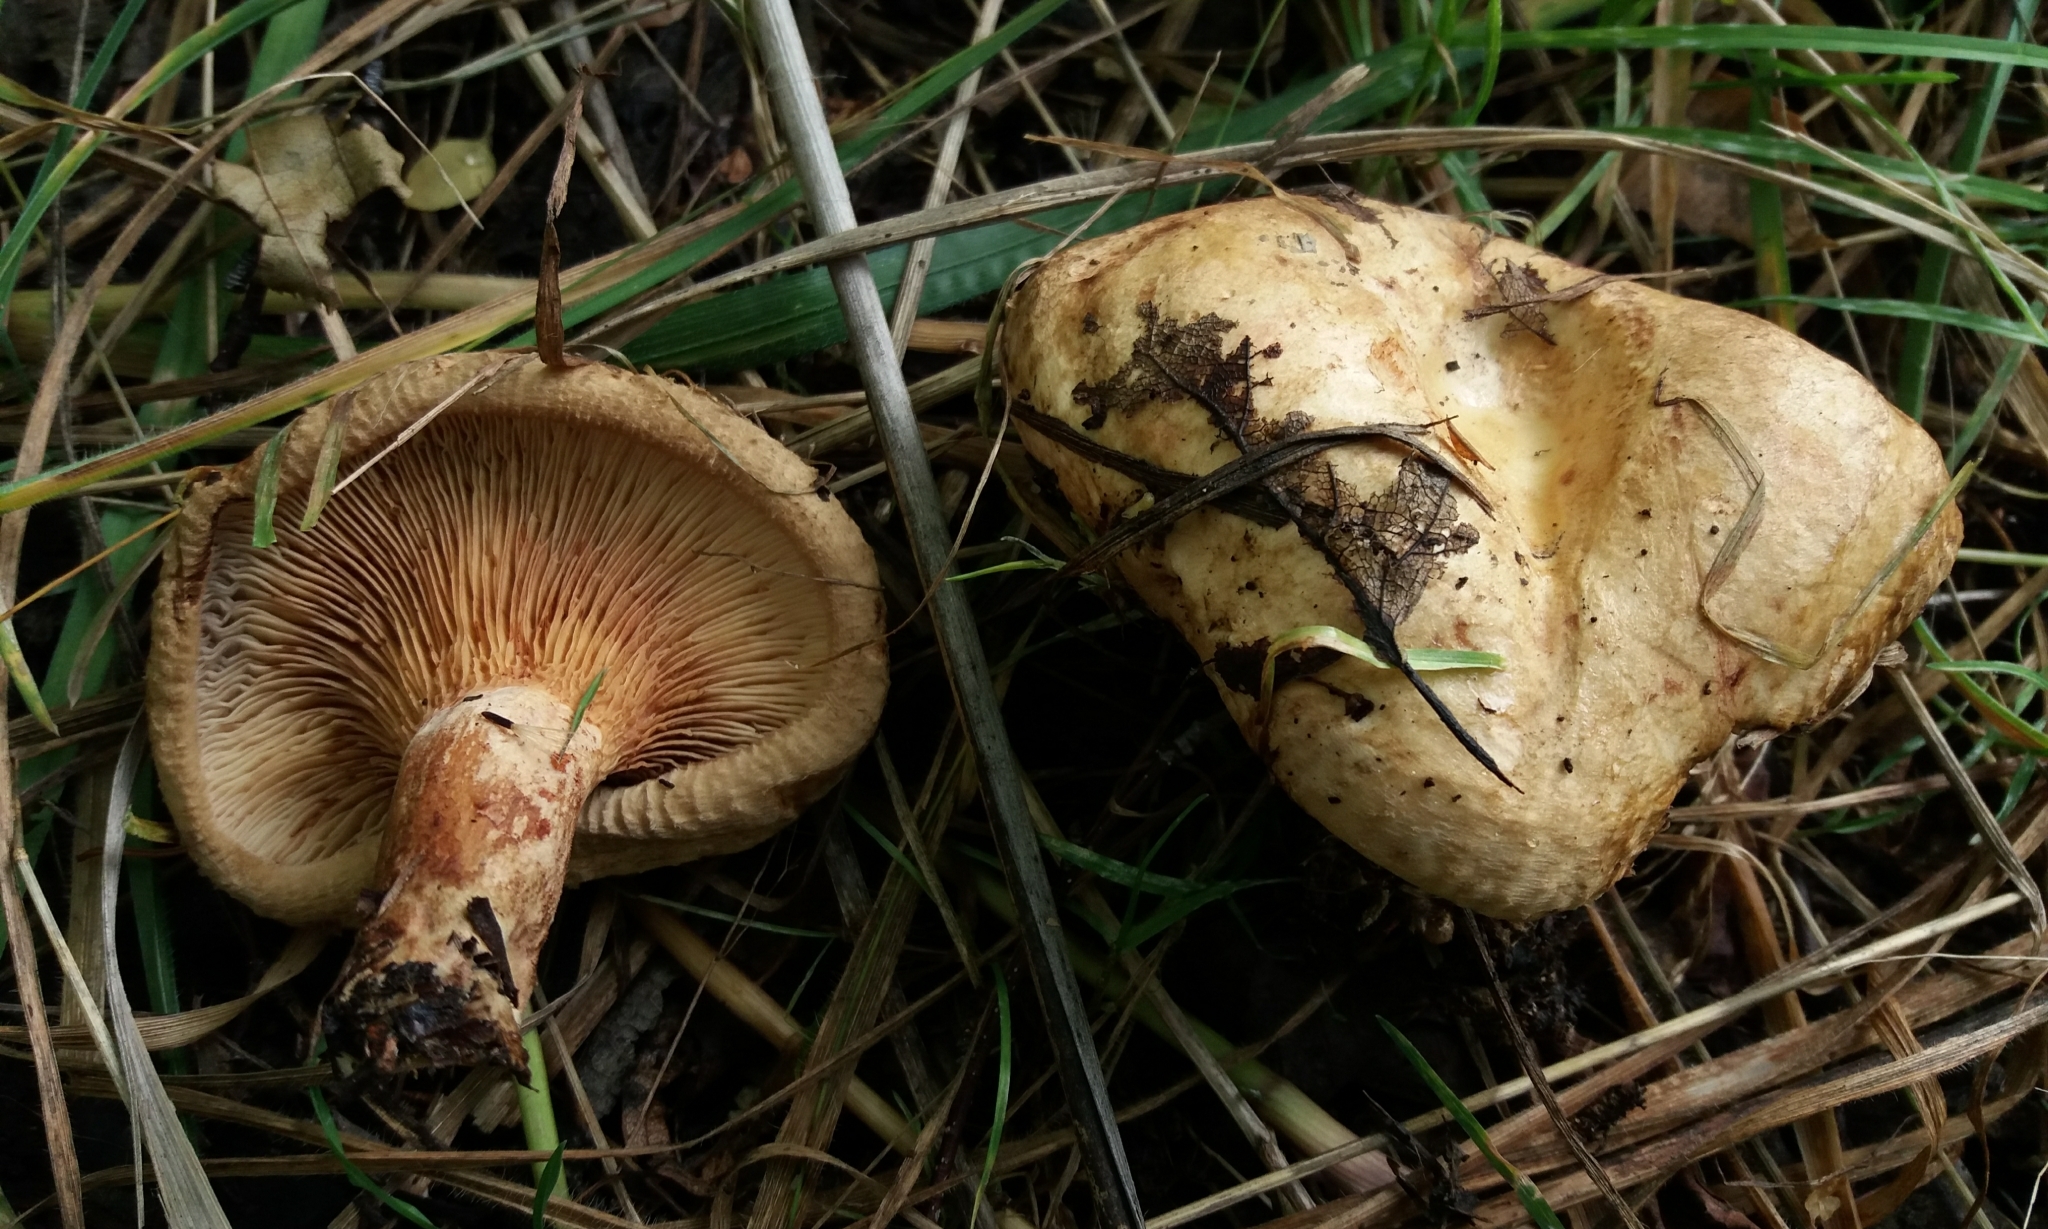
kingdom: Fungi
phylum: Basidiomycota
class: Agaricomycetes
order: Boletales
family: Paxillaceae
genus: Paxillus
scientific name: Paxillus involutus
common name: Brown roll rim
